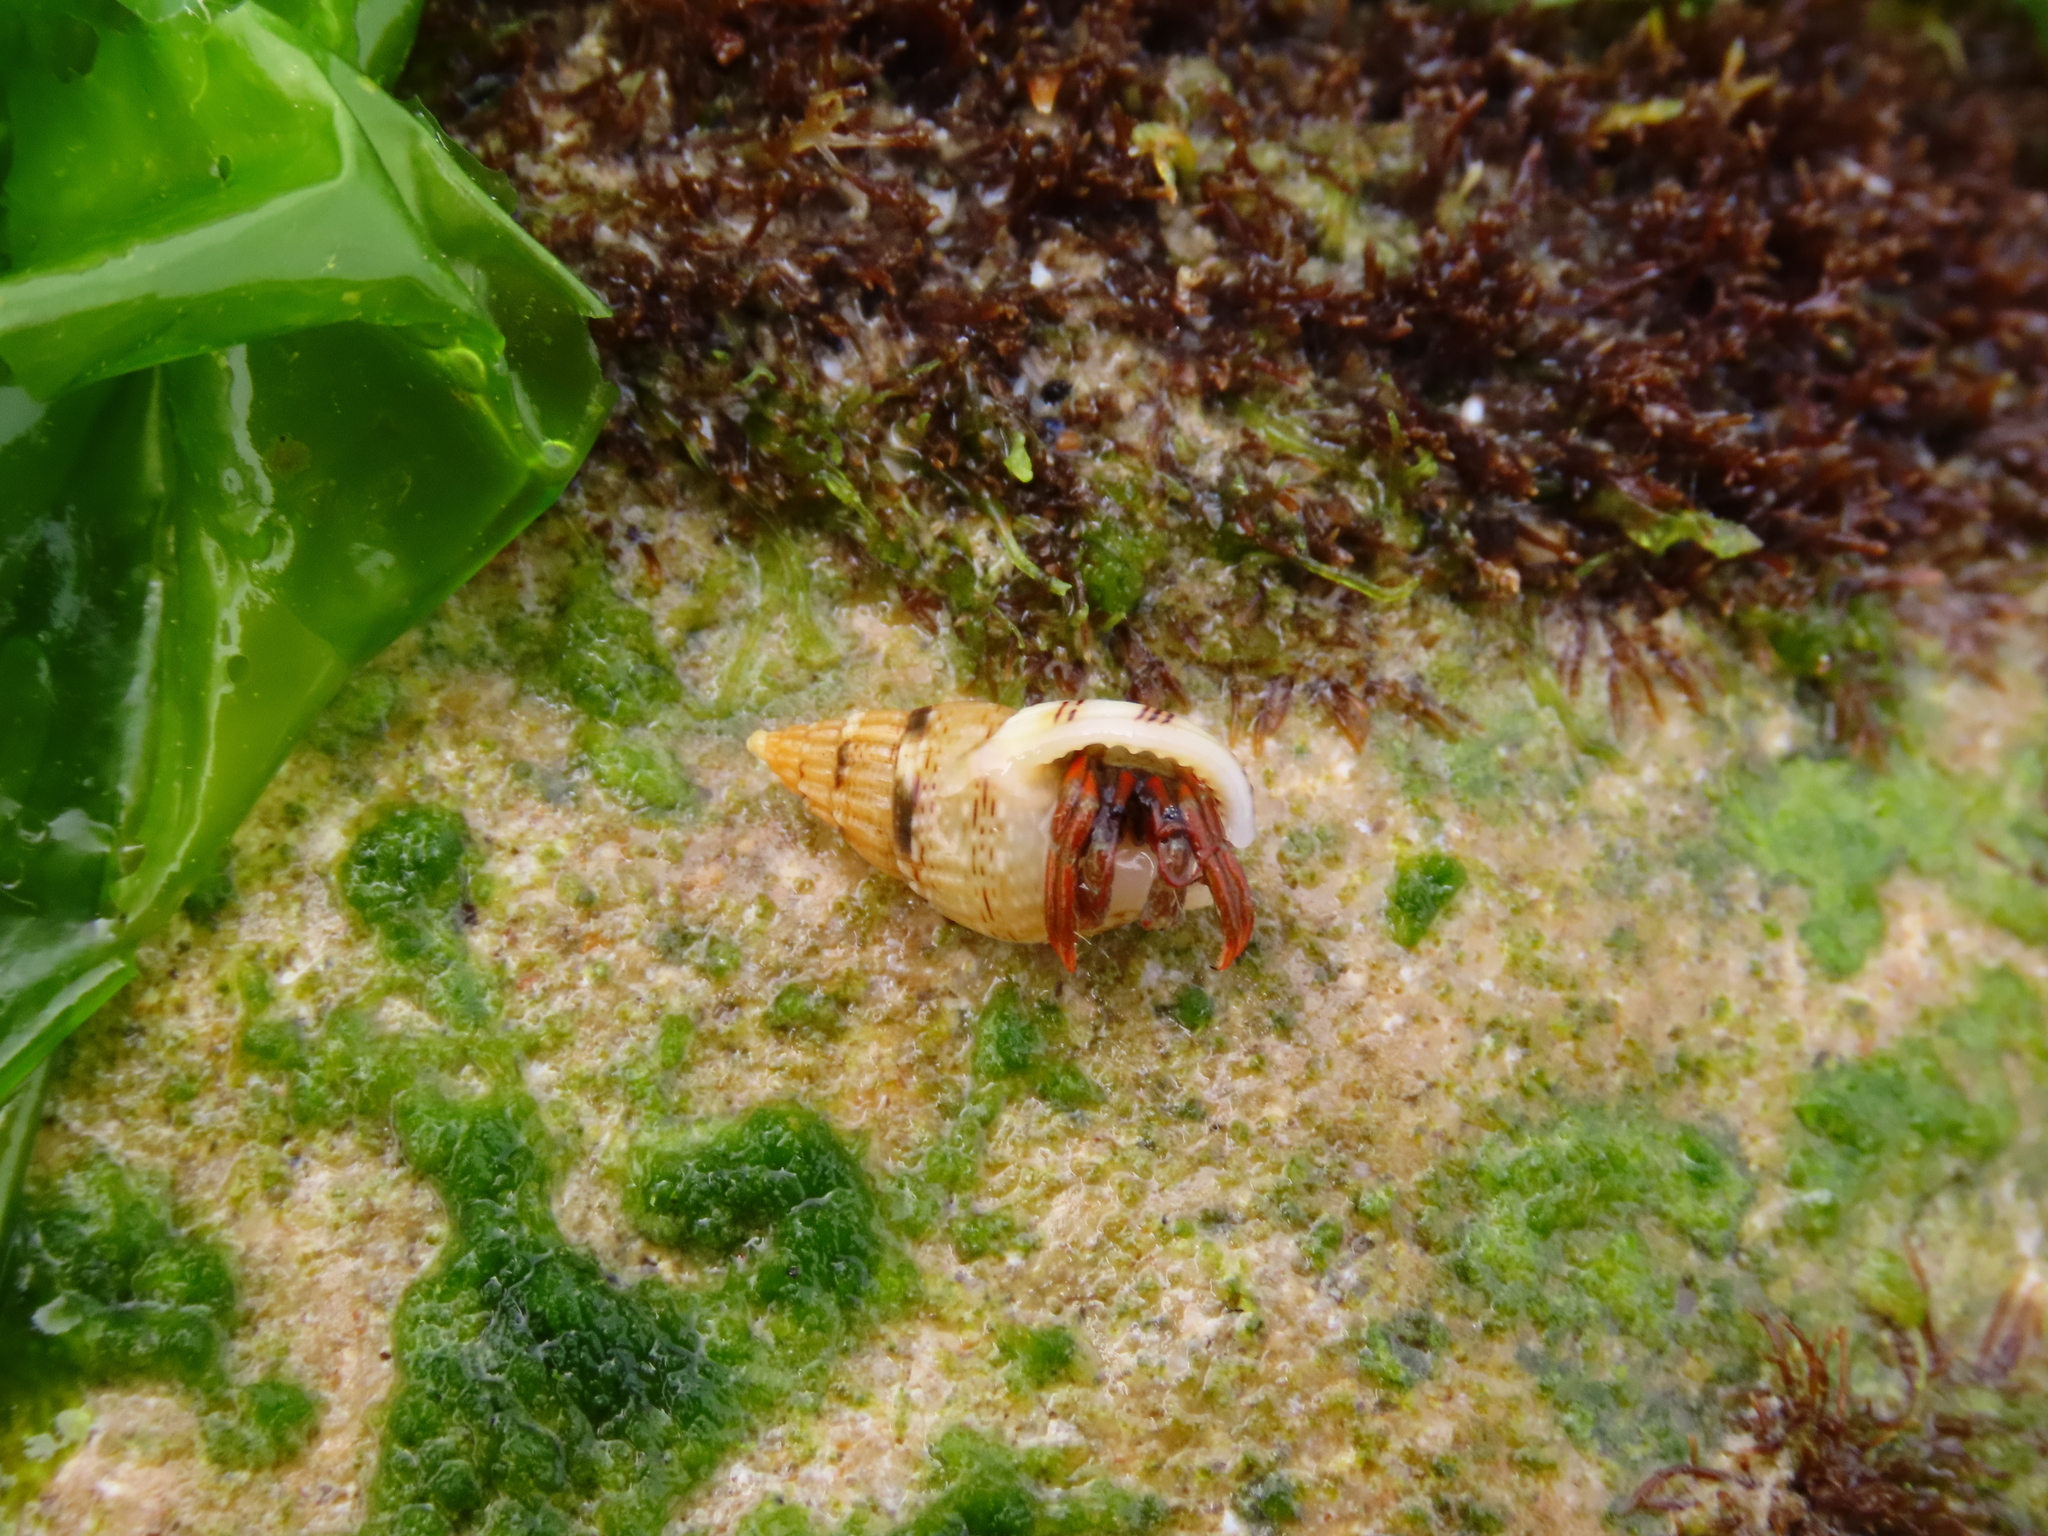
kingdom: Animalia
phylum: Mollusca
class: Gastropoda
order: Neogastropoda
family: Nassariidae
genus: Tritia
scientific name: Tritia cuvierii
